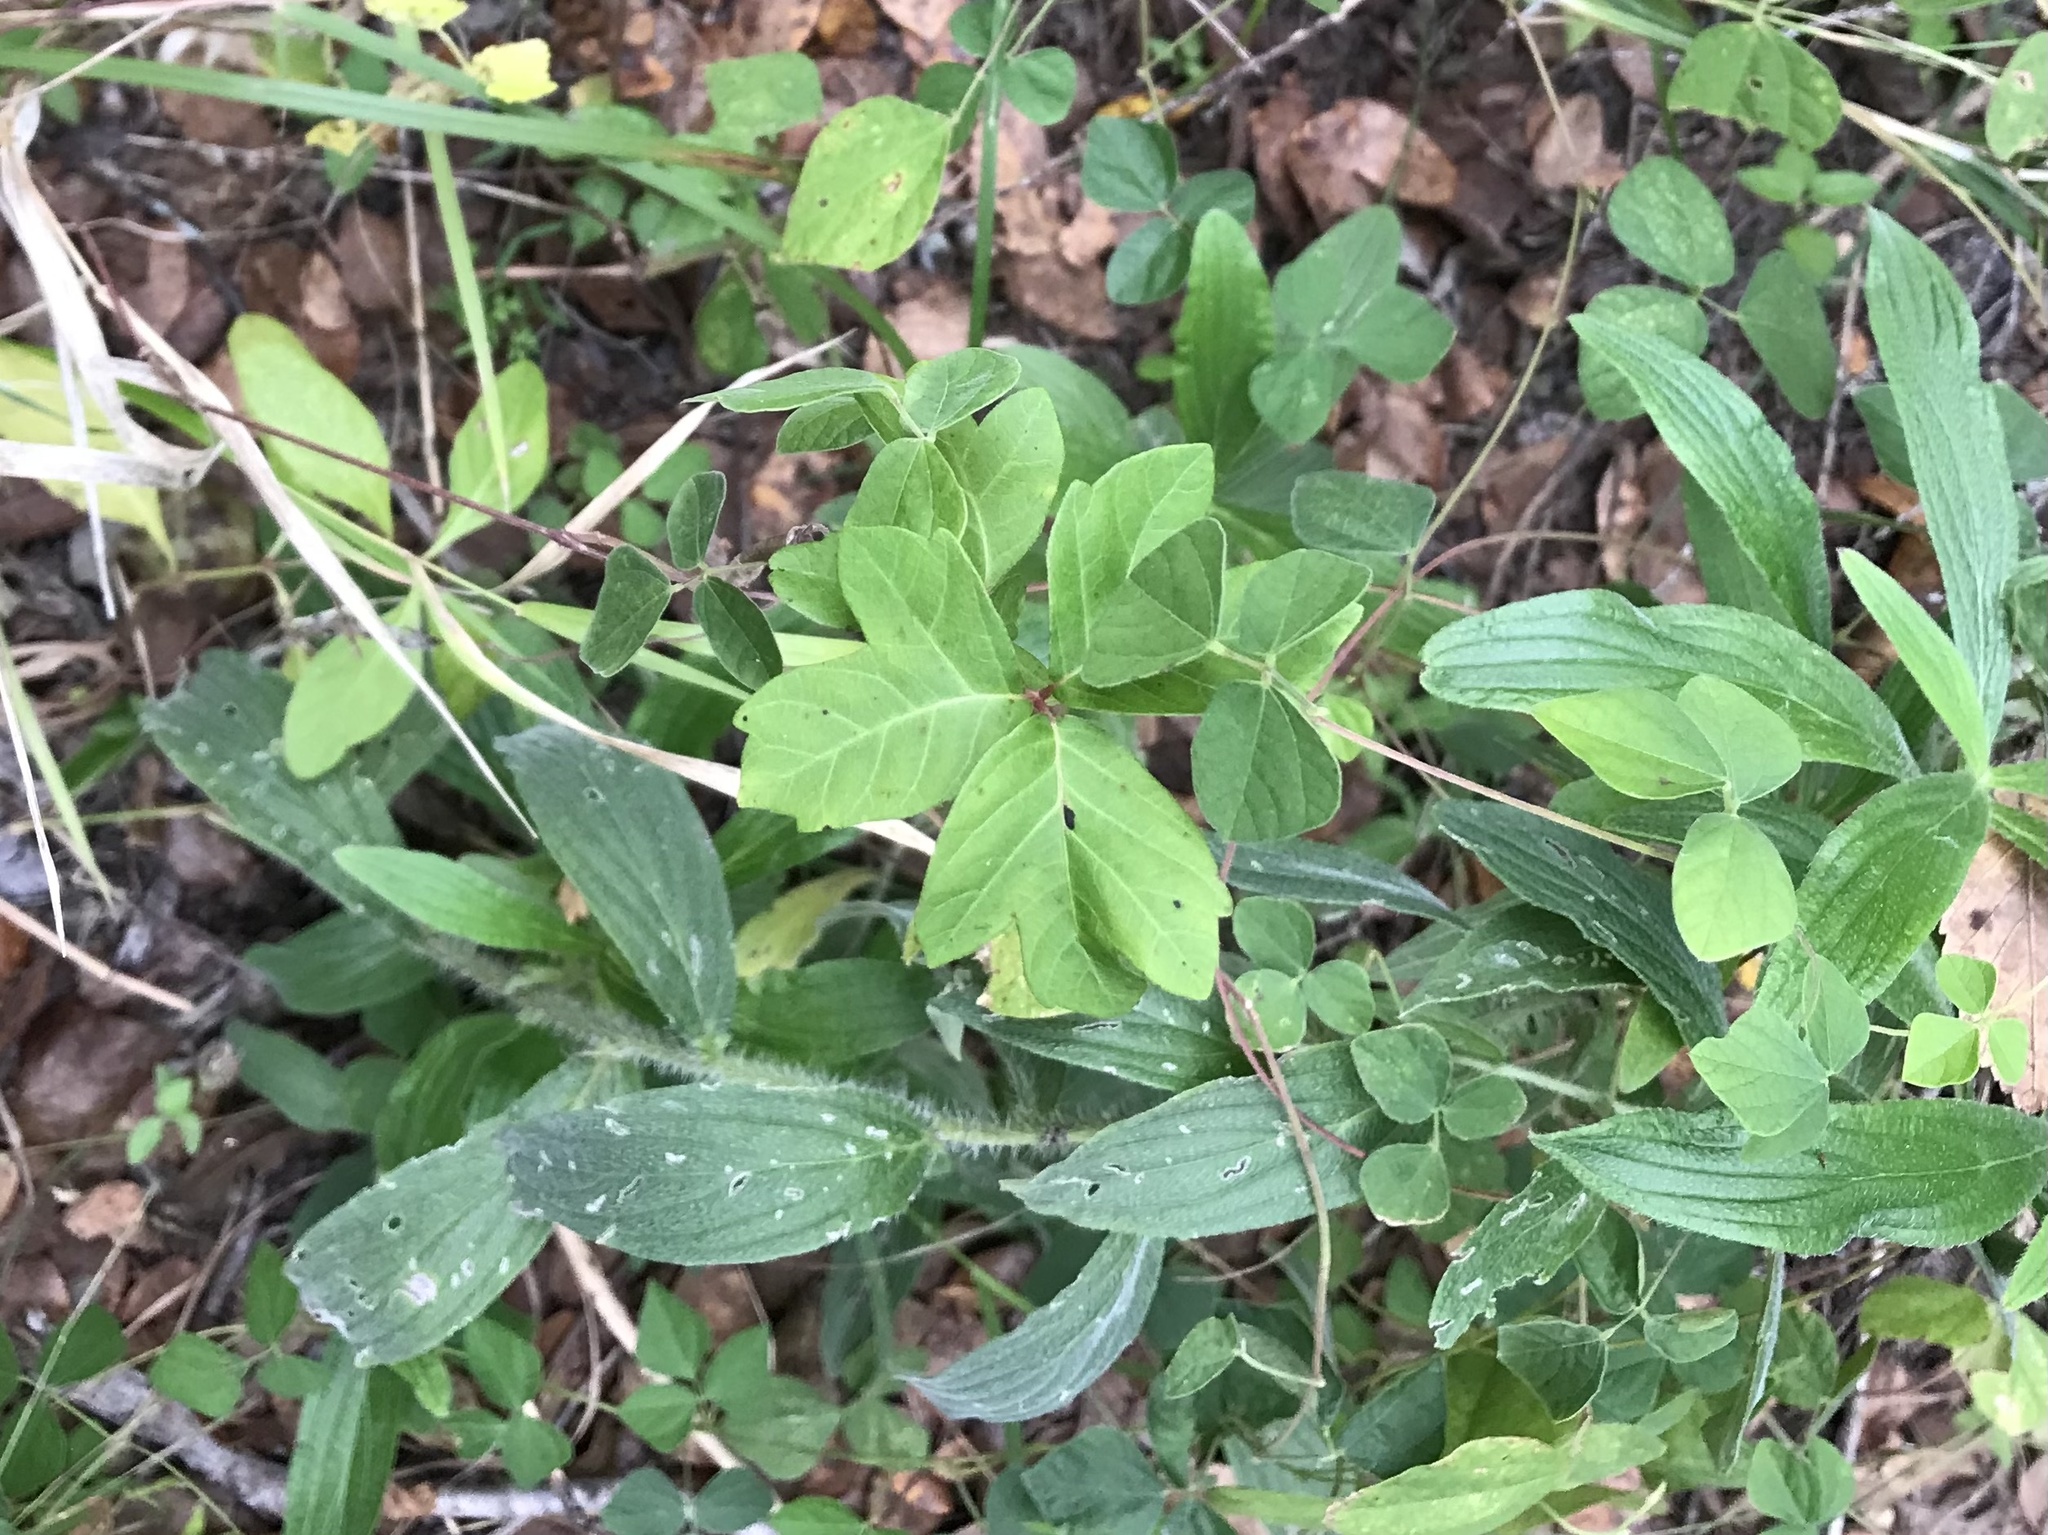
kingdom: Plantae
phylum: Tracheophyta
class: Magnoliopsida
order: Sapindales
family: Anacardiaceae
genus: Toxicodendron
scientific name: Toxicodendron radicans
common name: Poison ivy
